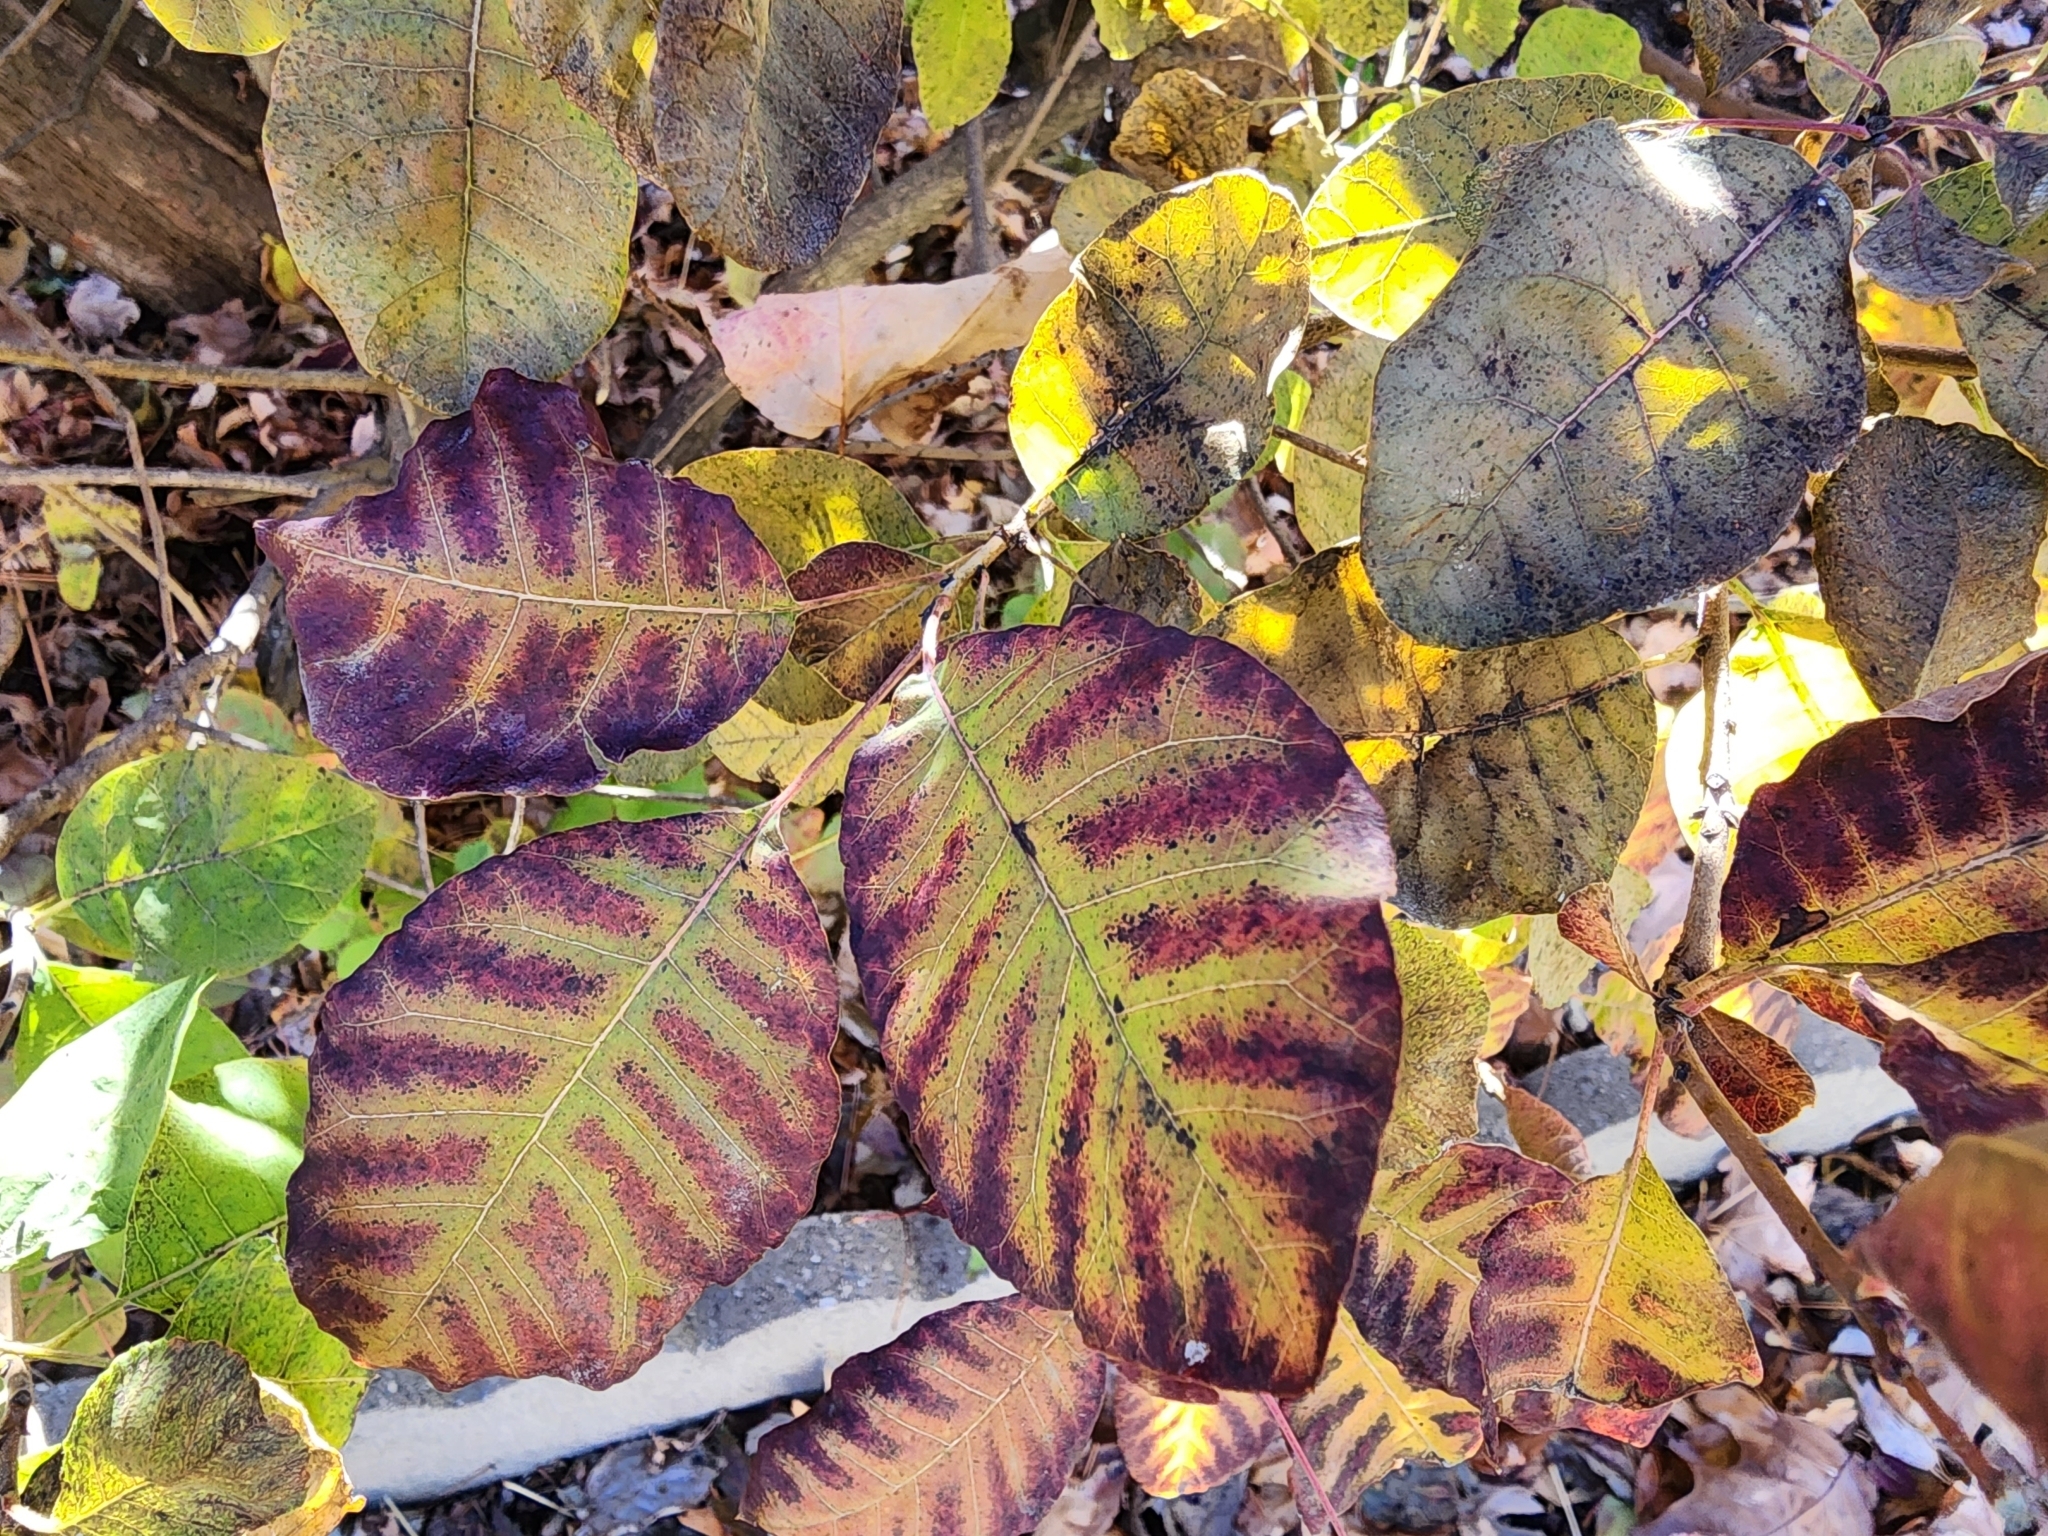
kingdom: Plantae
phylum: Tracheophyta
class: Magnoliopsida
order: Sapindales
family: Anacardiaceae
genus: Cotinus
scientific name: Cotinus obovatus
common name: Chittamwood
